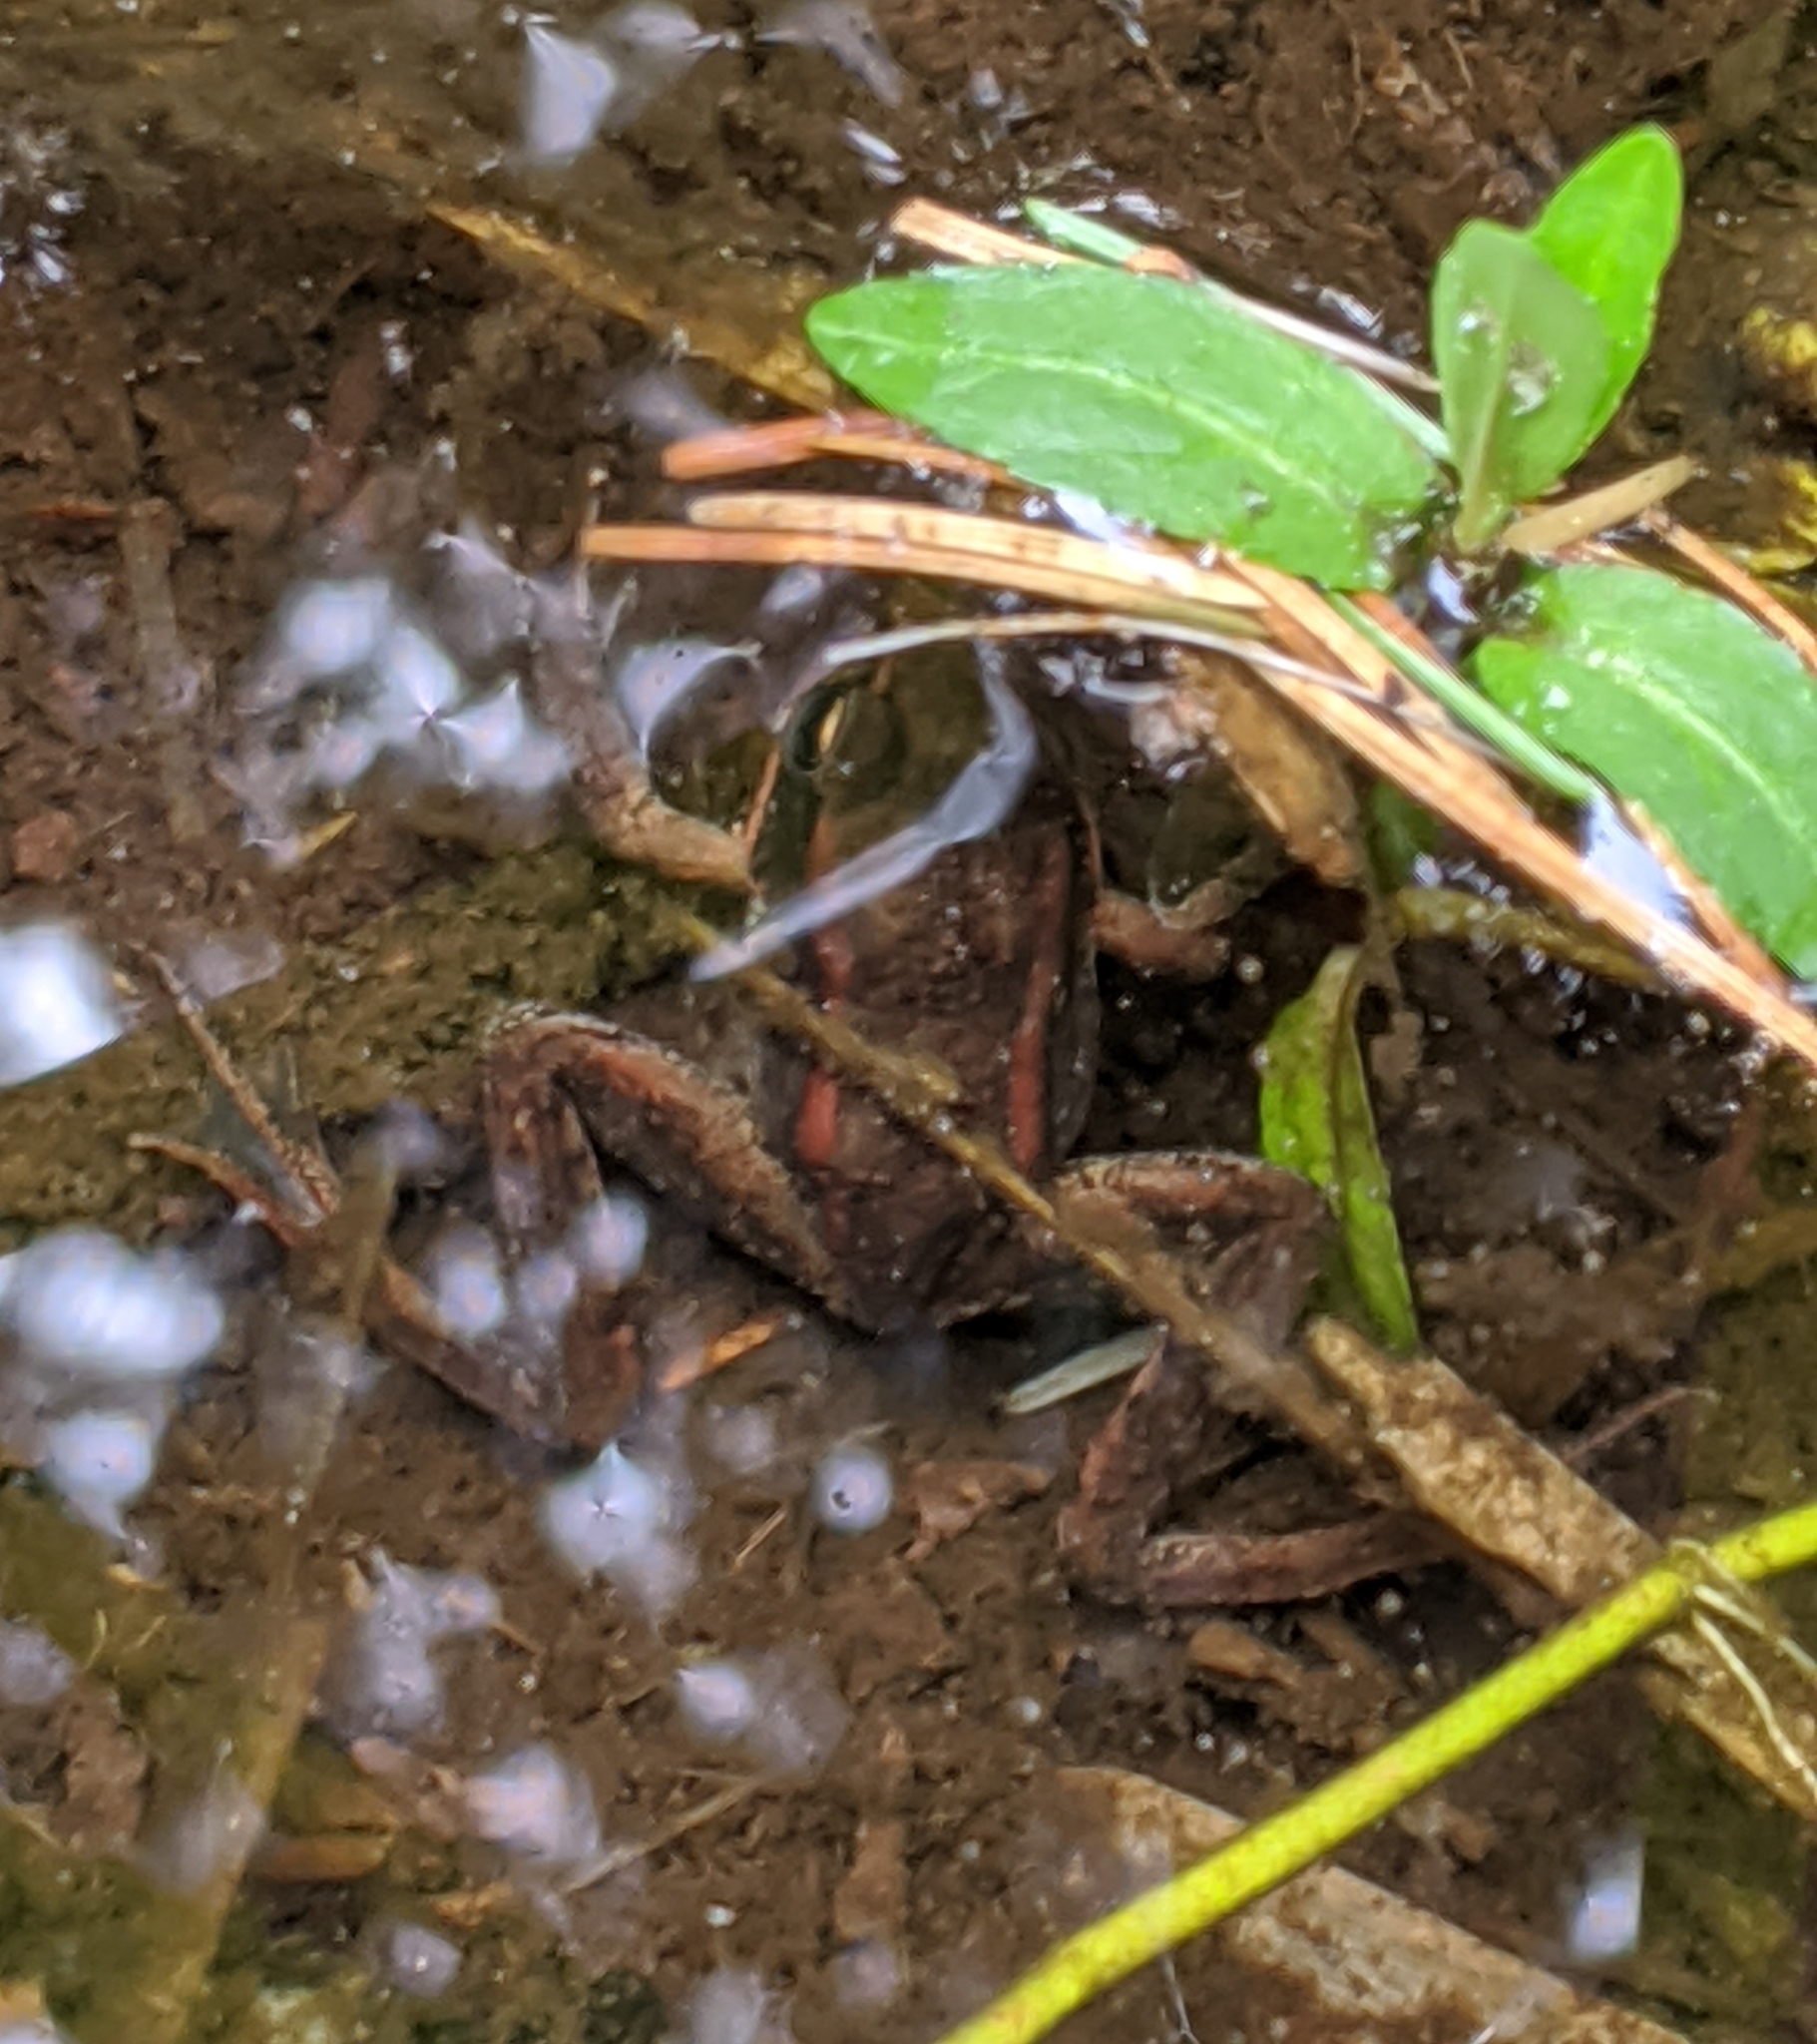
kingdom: Animalia
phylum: Chordata
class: Amphibia
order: Anura
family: Ranidae
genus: Rana
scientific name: Rana aurora
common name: Red-legged frog
